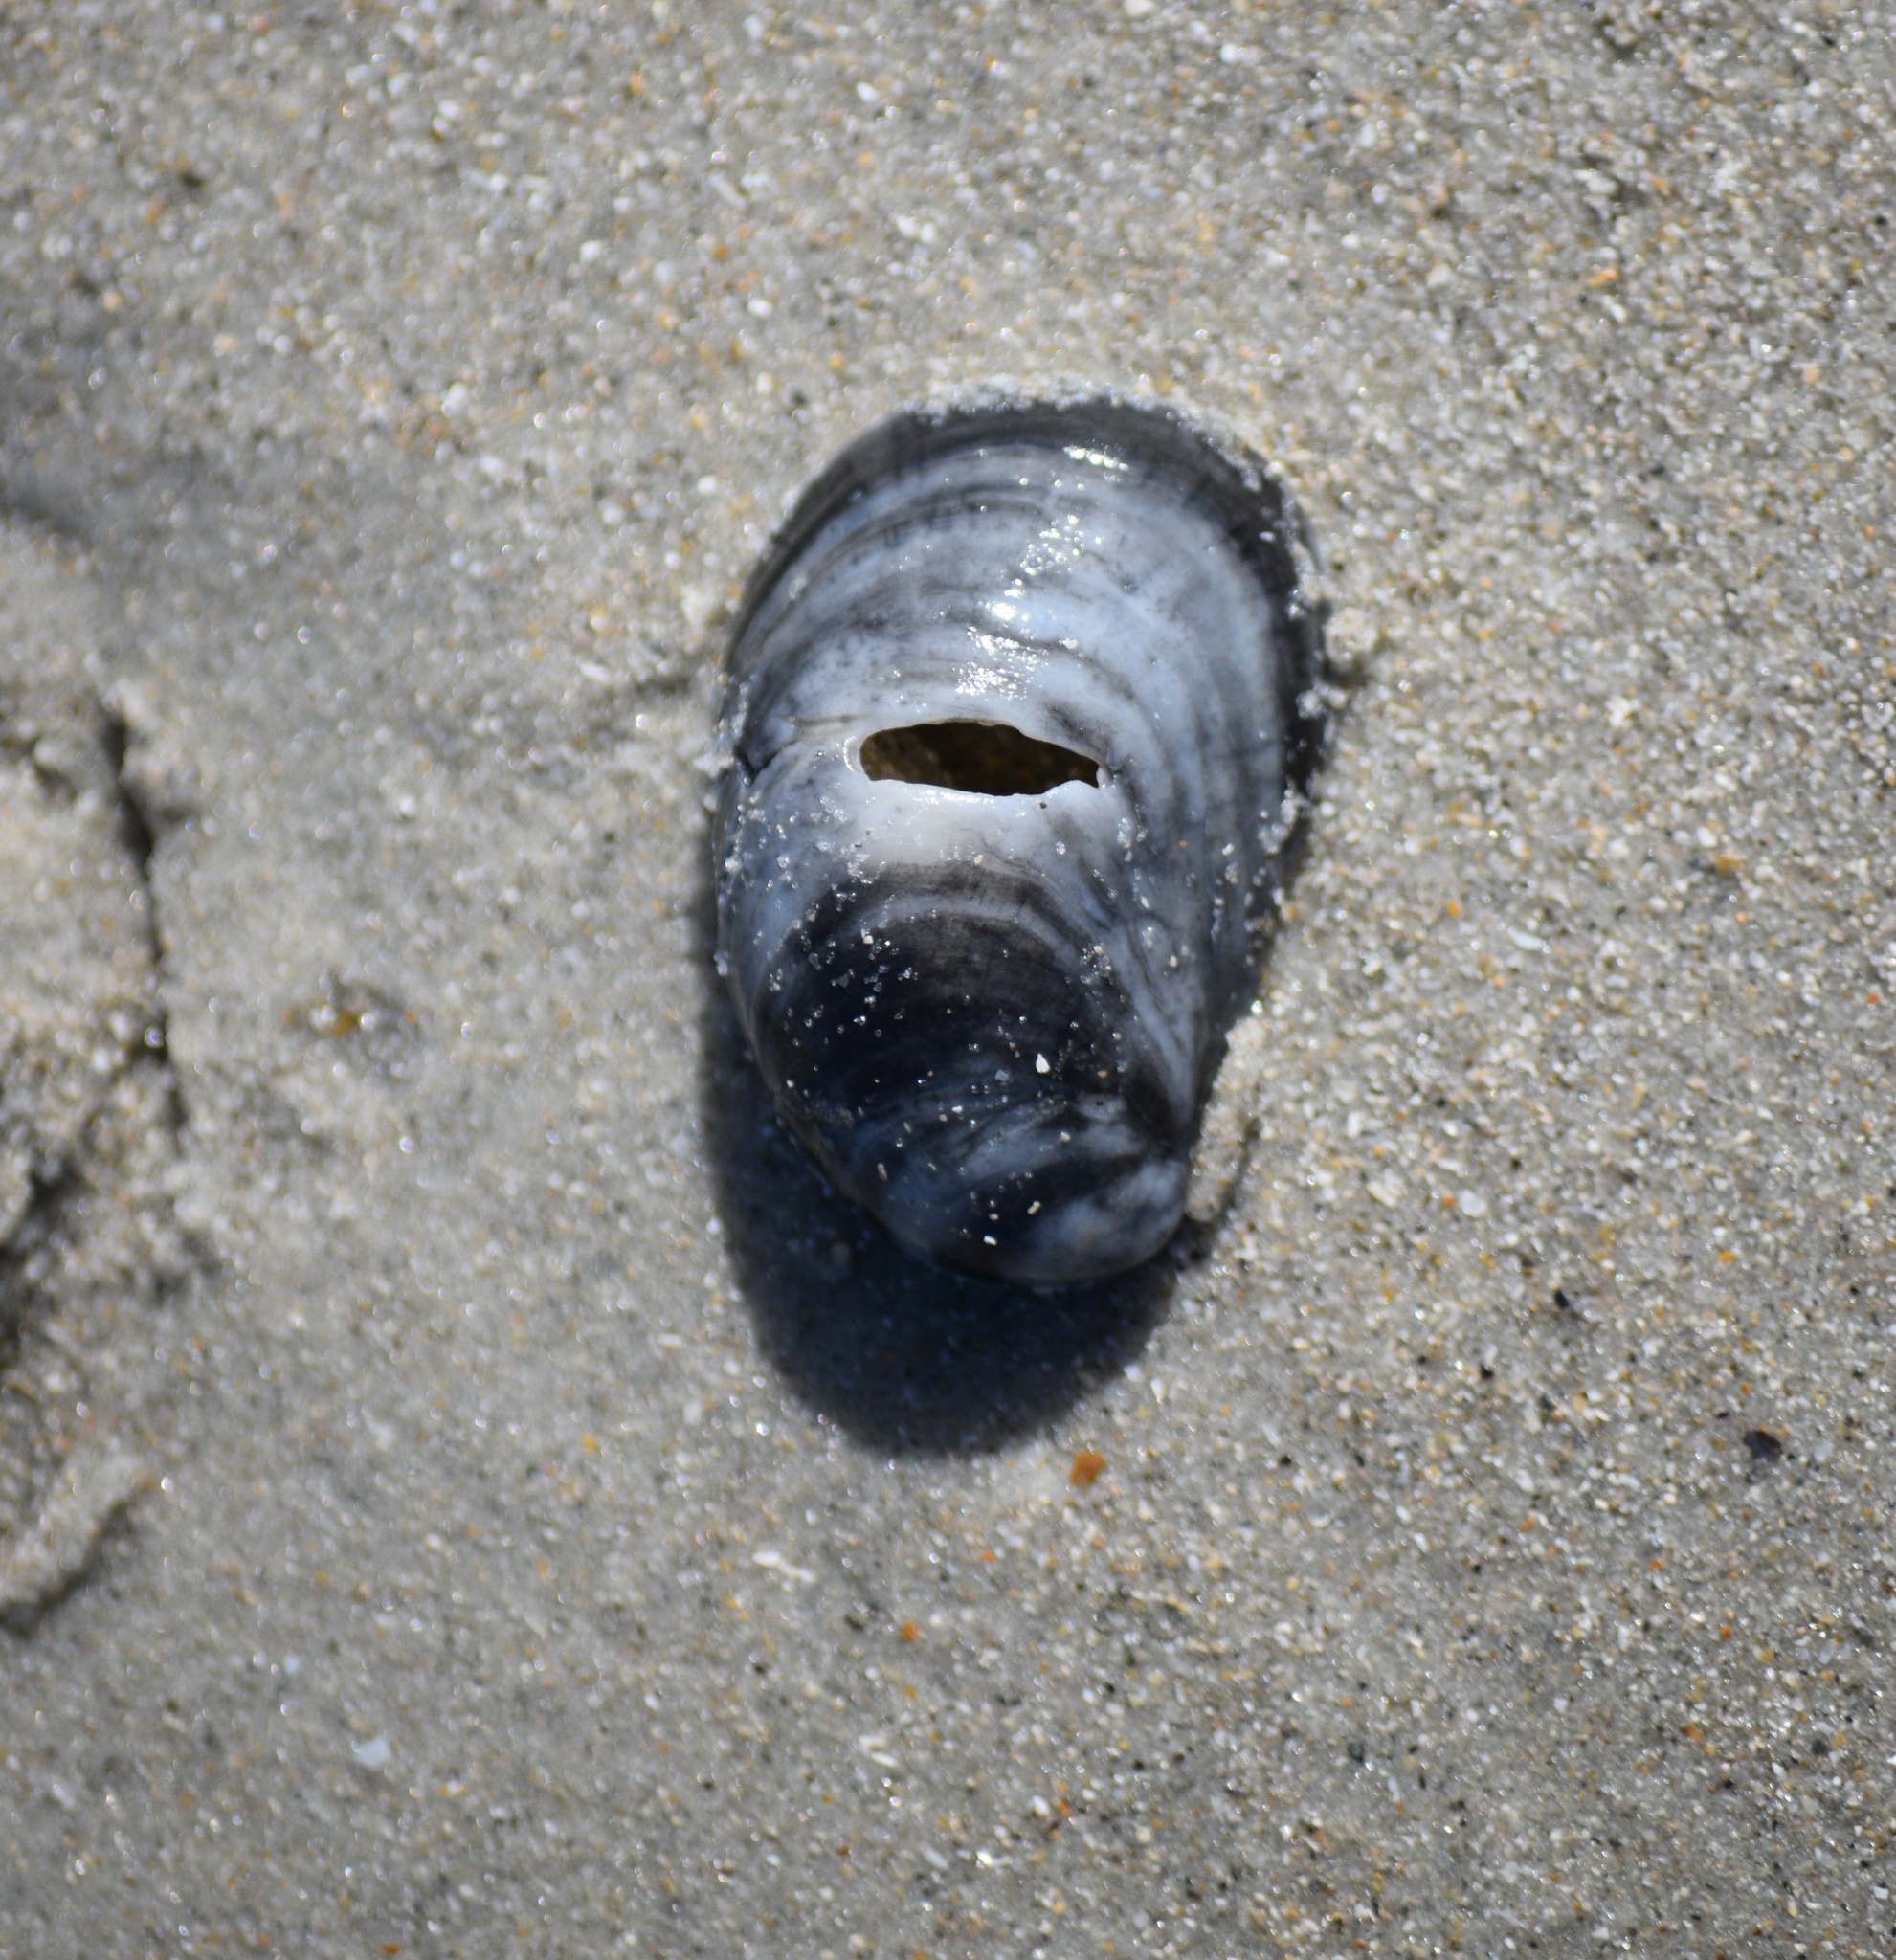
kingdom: Animalia
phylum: Mollusca
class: Gastropoda
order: Littorinimorpha
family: Calyptraeidae
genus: Crepidula
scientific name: Crepidula fornicata
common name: Slipper limpet
